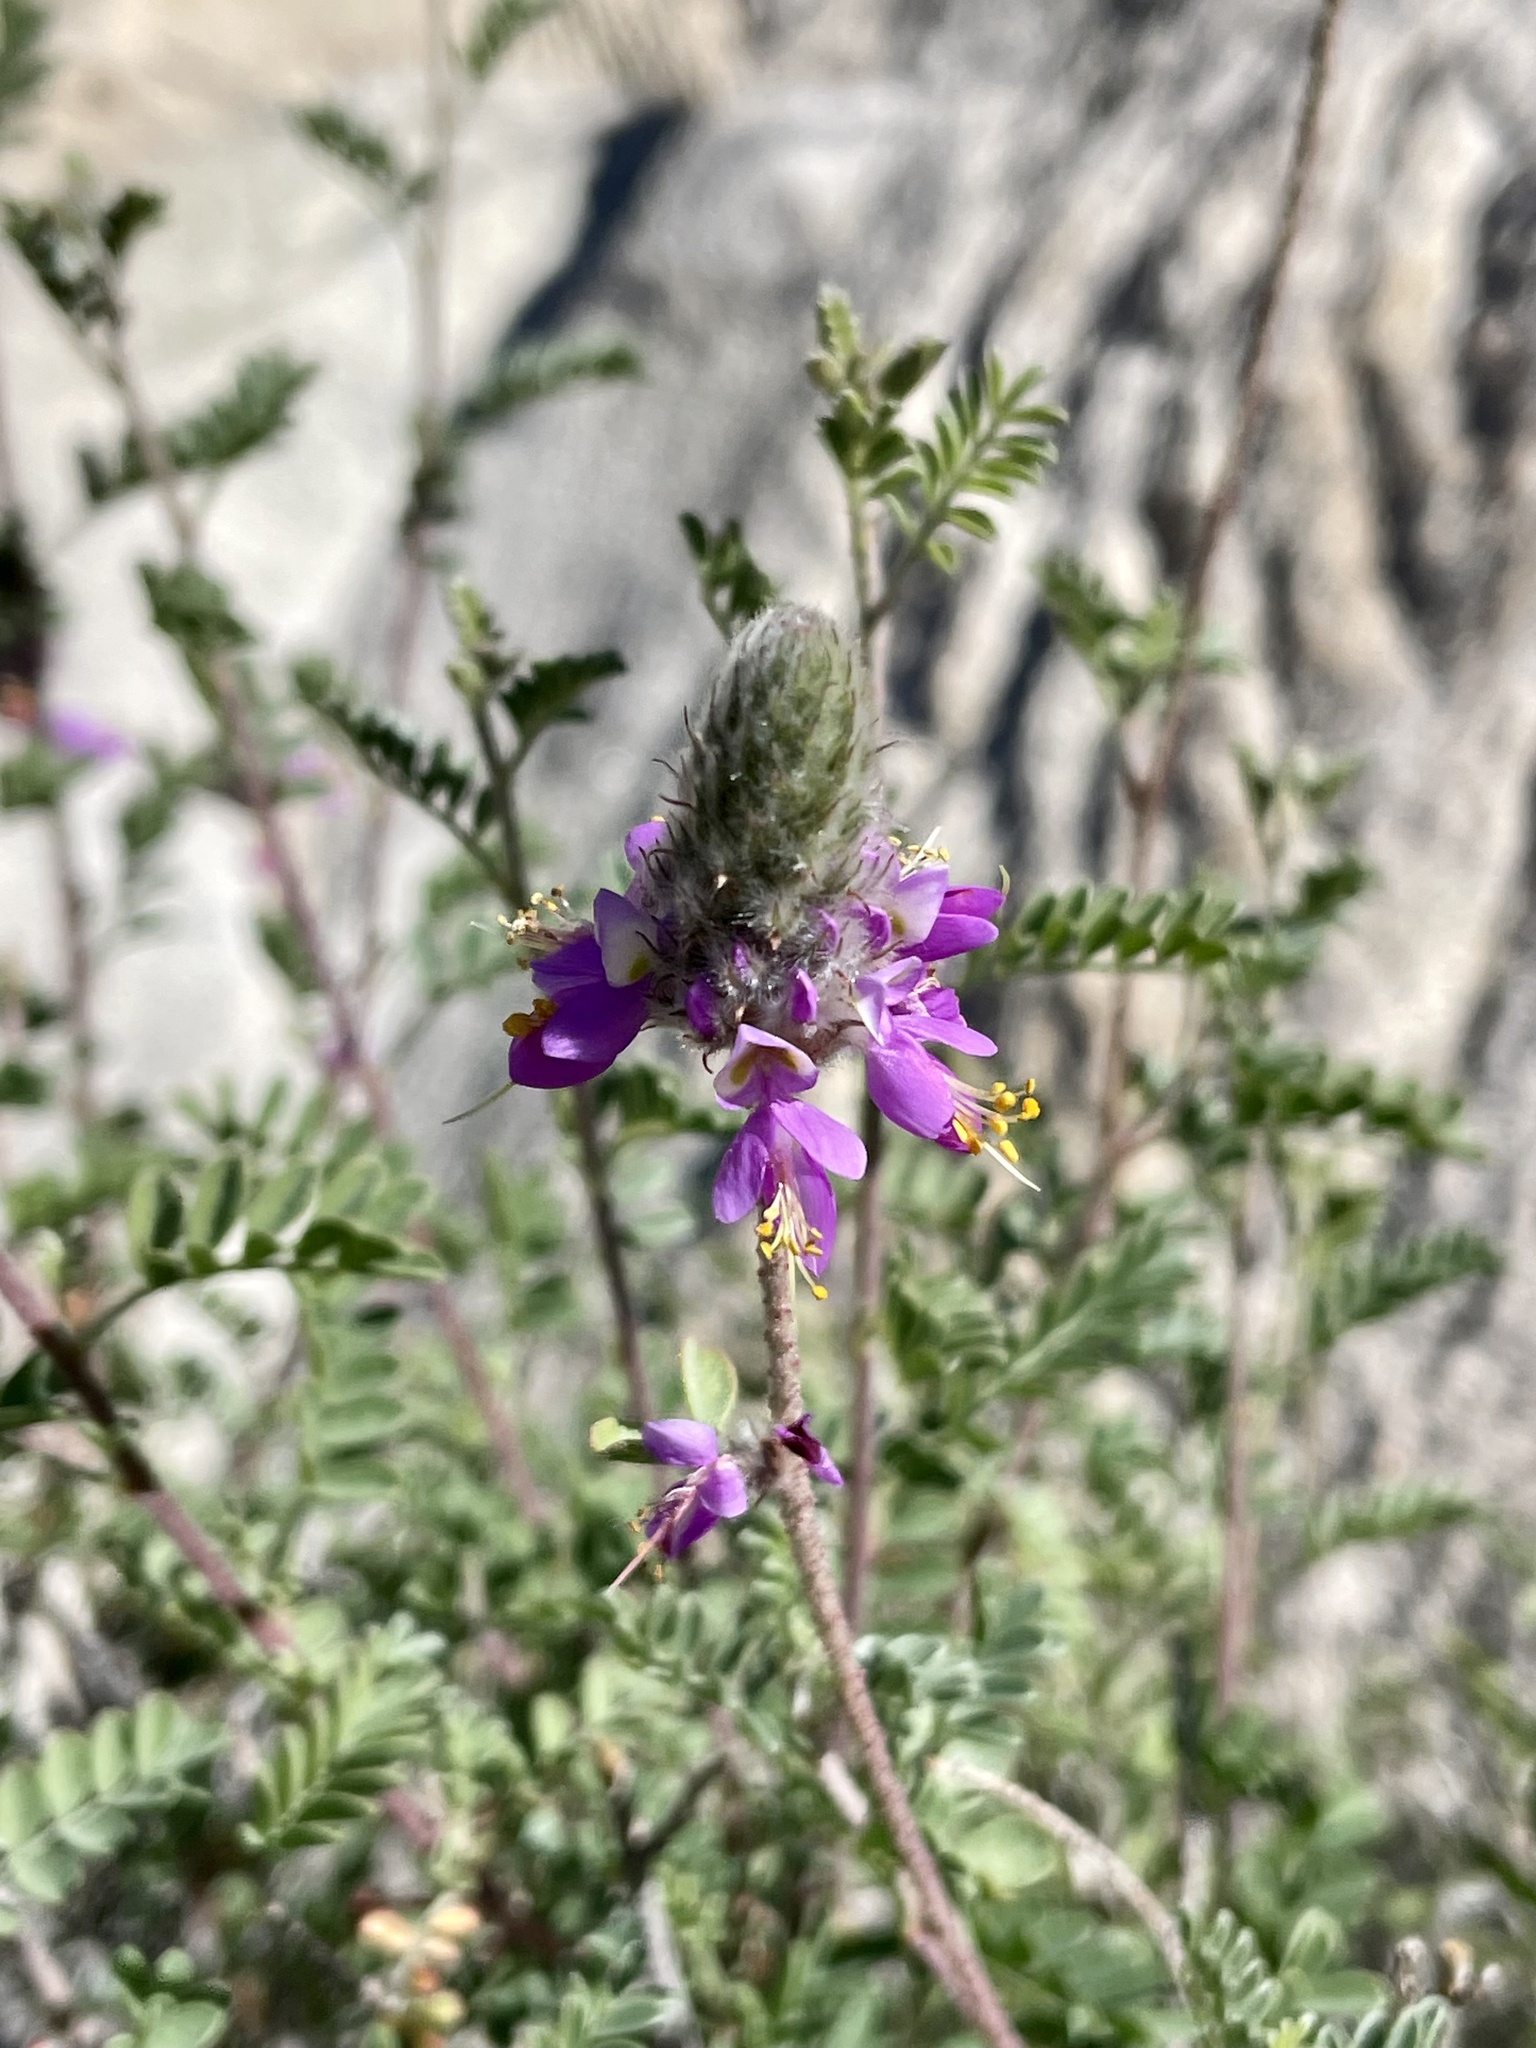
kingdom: Plantae
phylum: Tracheophyta
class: Magnoliopsida
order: Fabales
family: Fabaceae
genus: Dalea
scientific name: Dalea bicolor
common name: Silver prairie-clover
